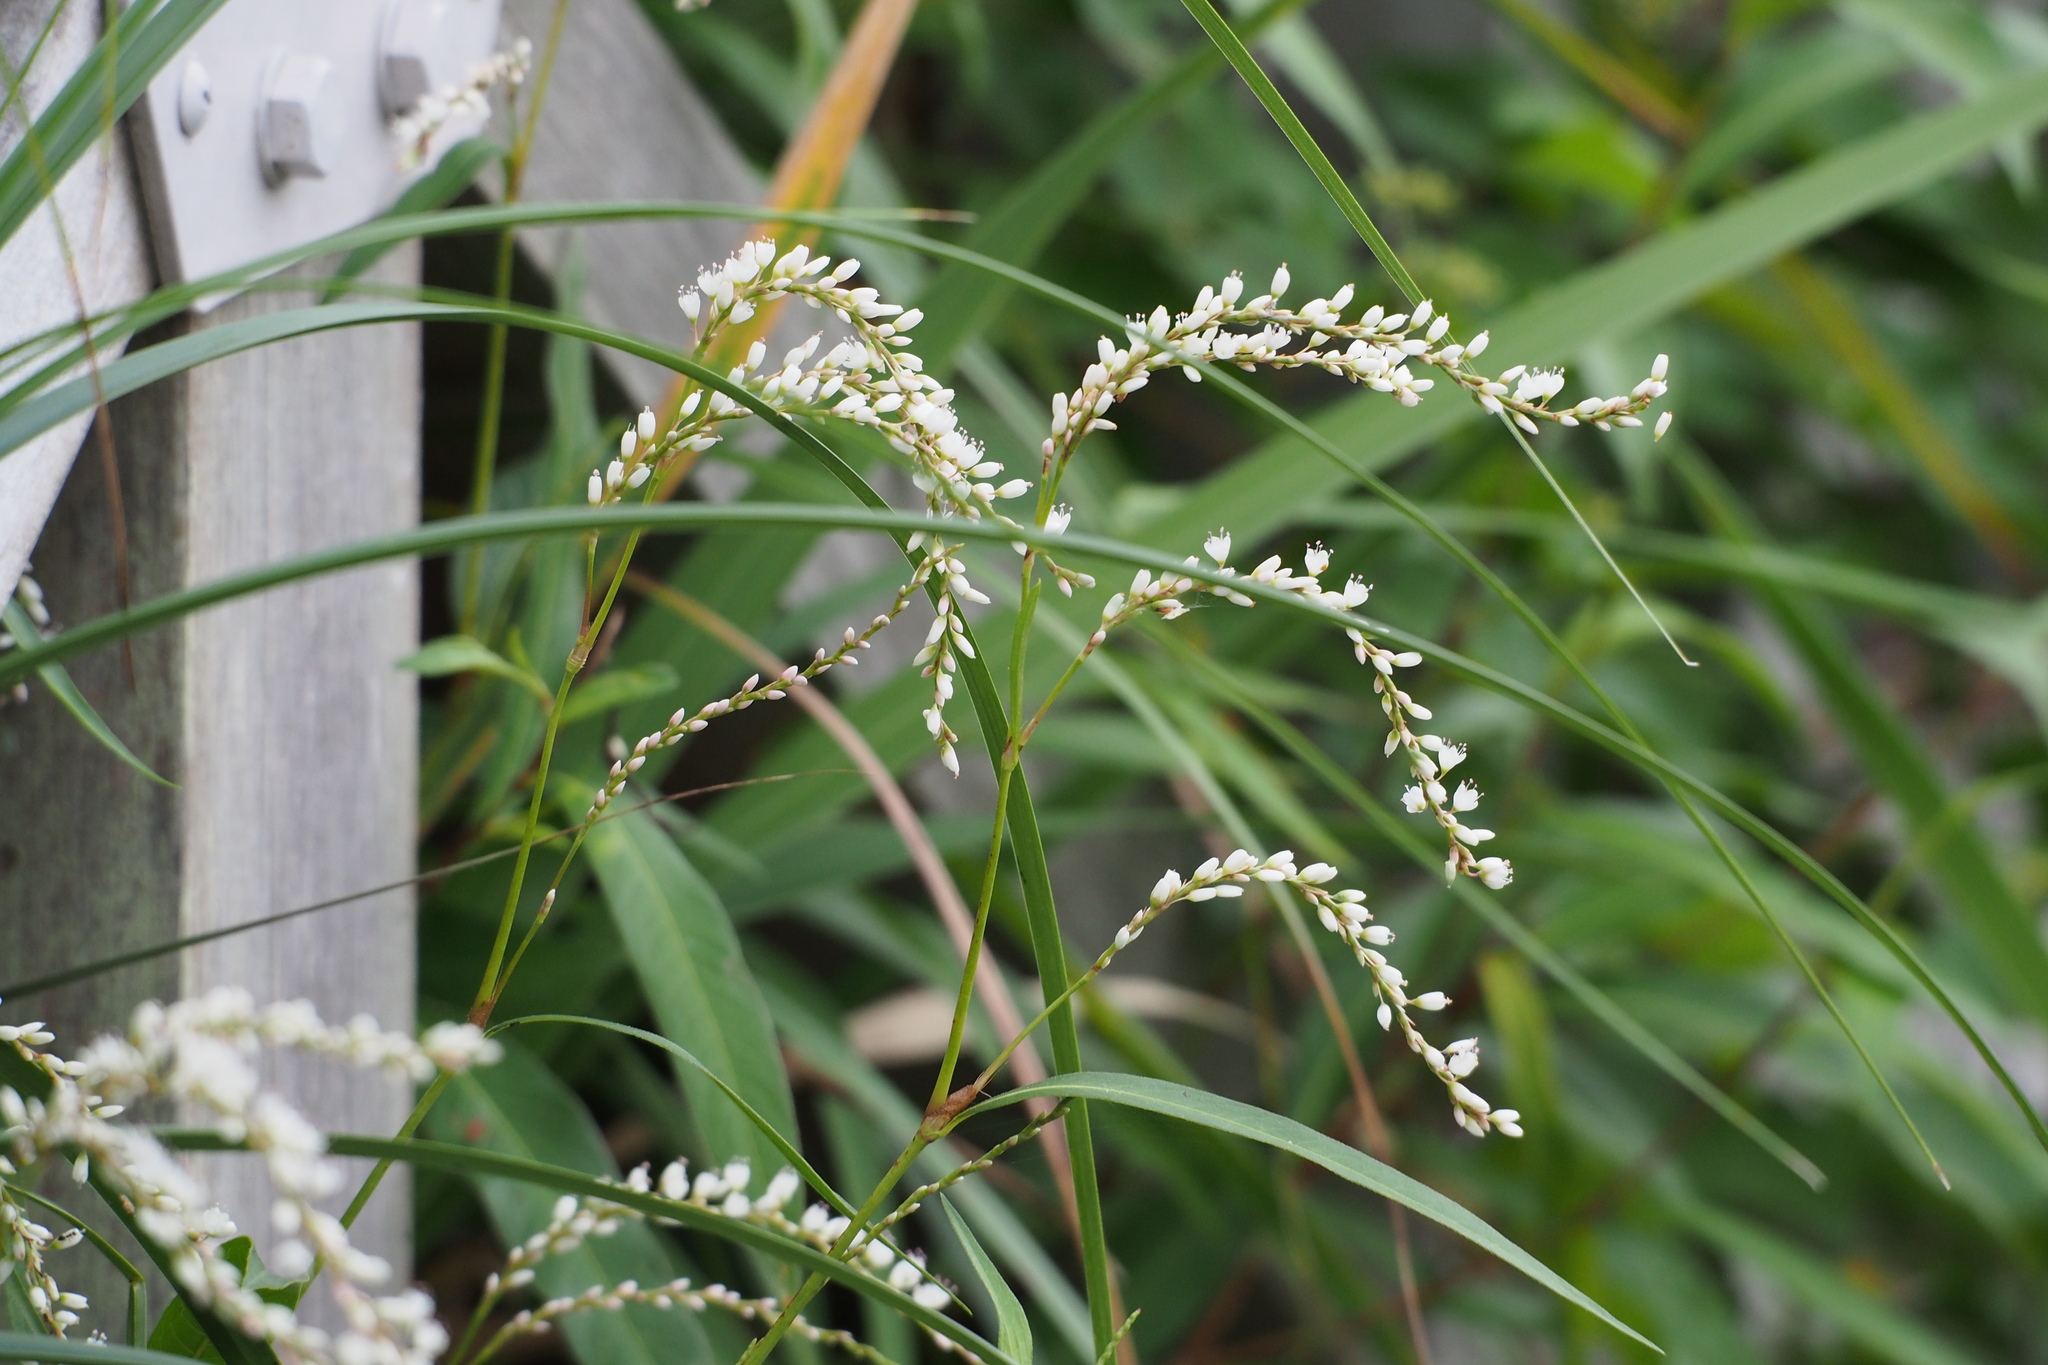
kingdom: Plantae
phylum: Tracheophyta
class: Magnoliopsida
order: Caryophyllales
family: Polygonaceae
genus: Persicaria
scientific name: Persicaria japonica
